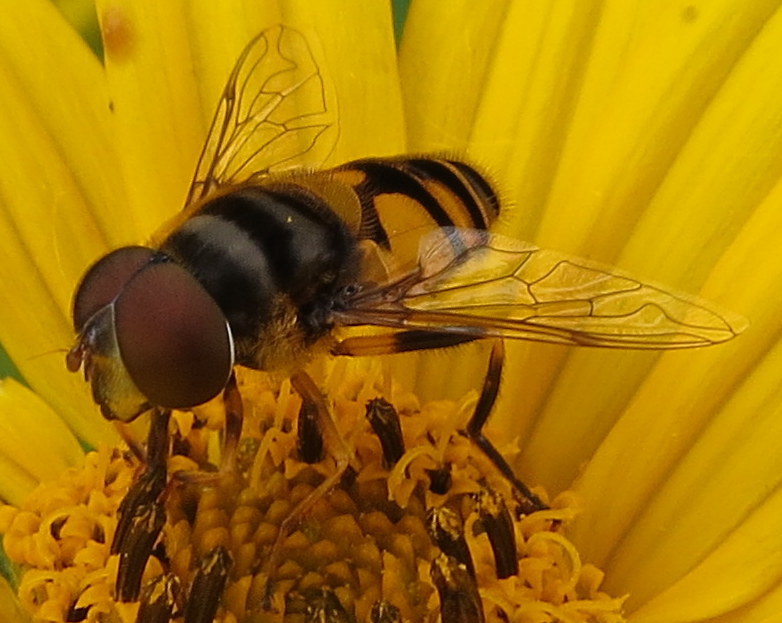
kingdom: Animalia
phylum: Arthropoda
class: Insecta
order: Diptera
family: Syrphidae
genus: Eristalis
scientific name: Eristalis transversa
